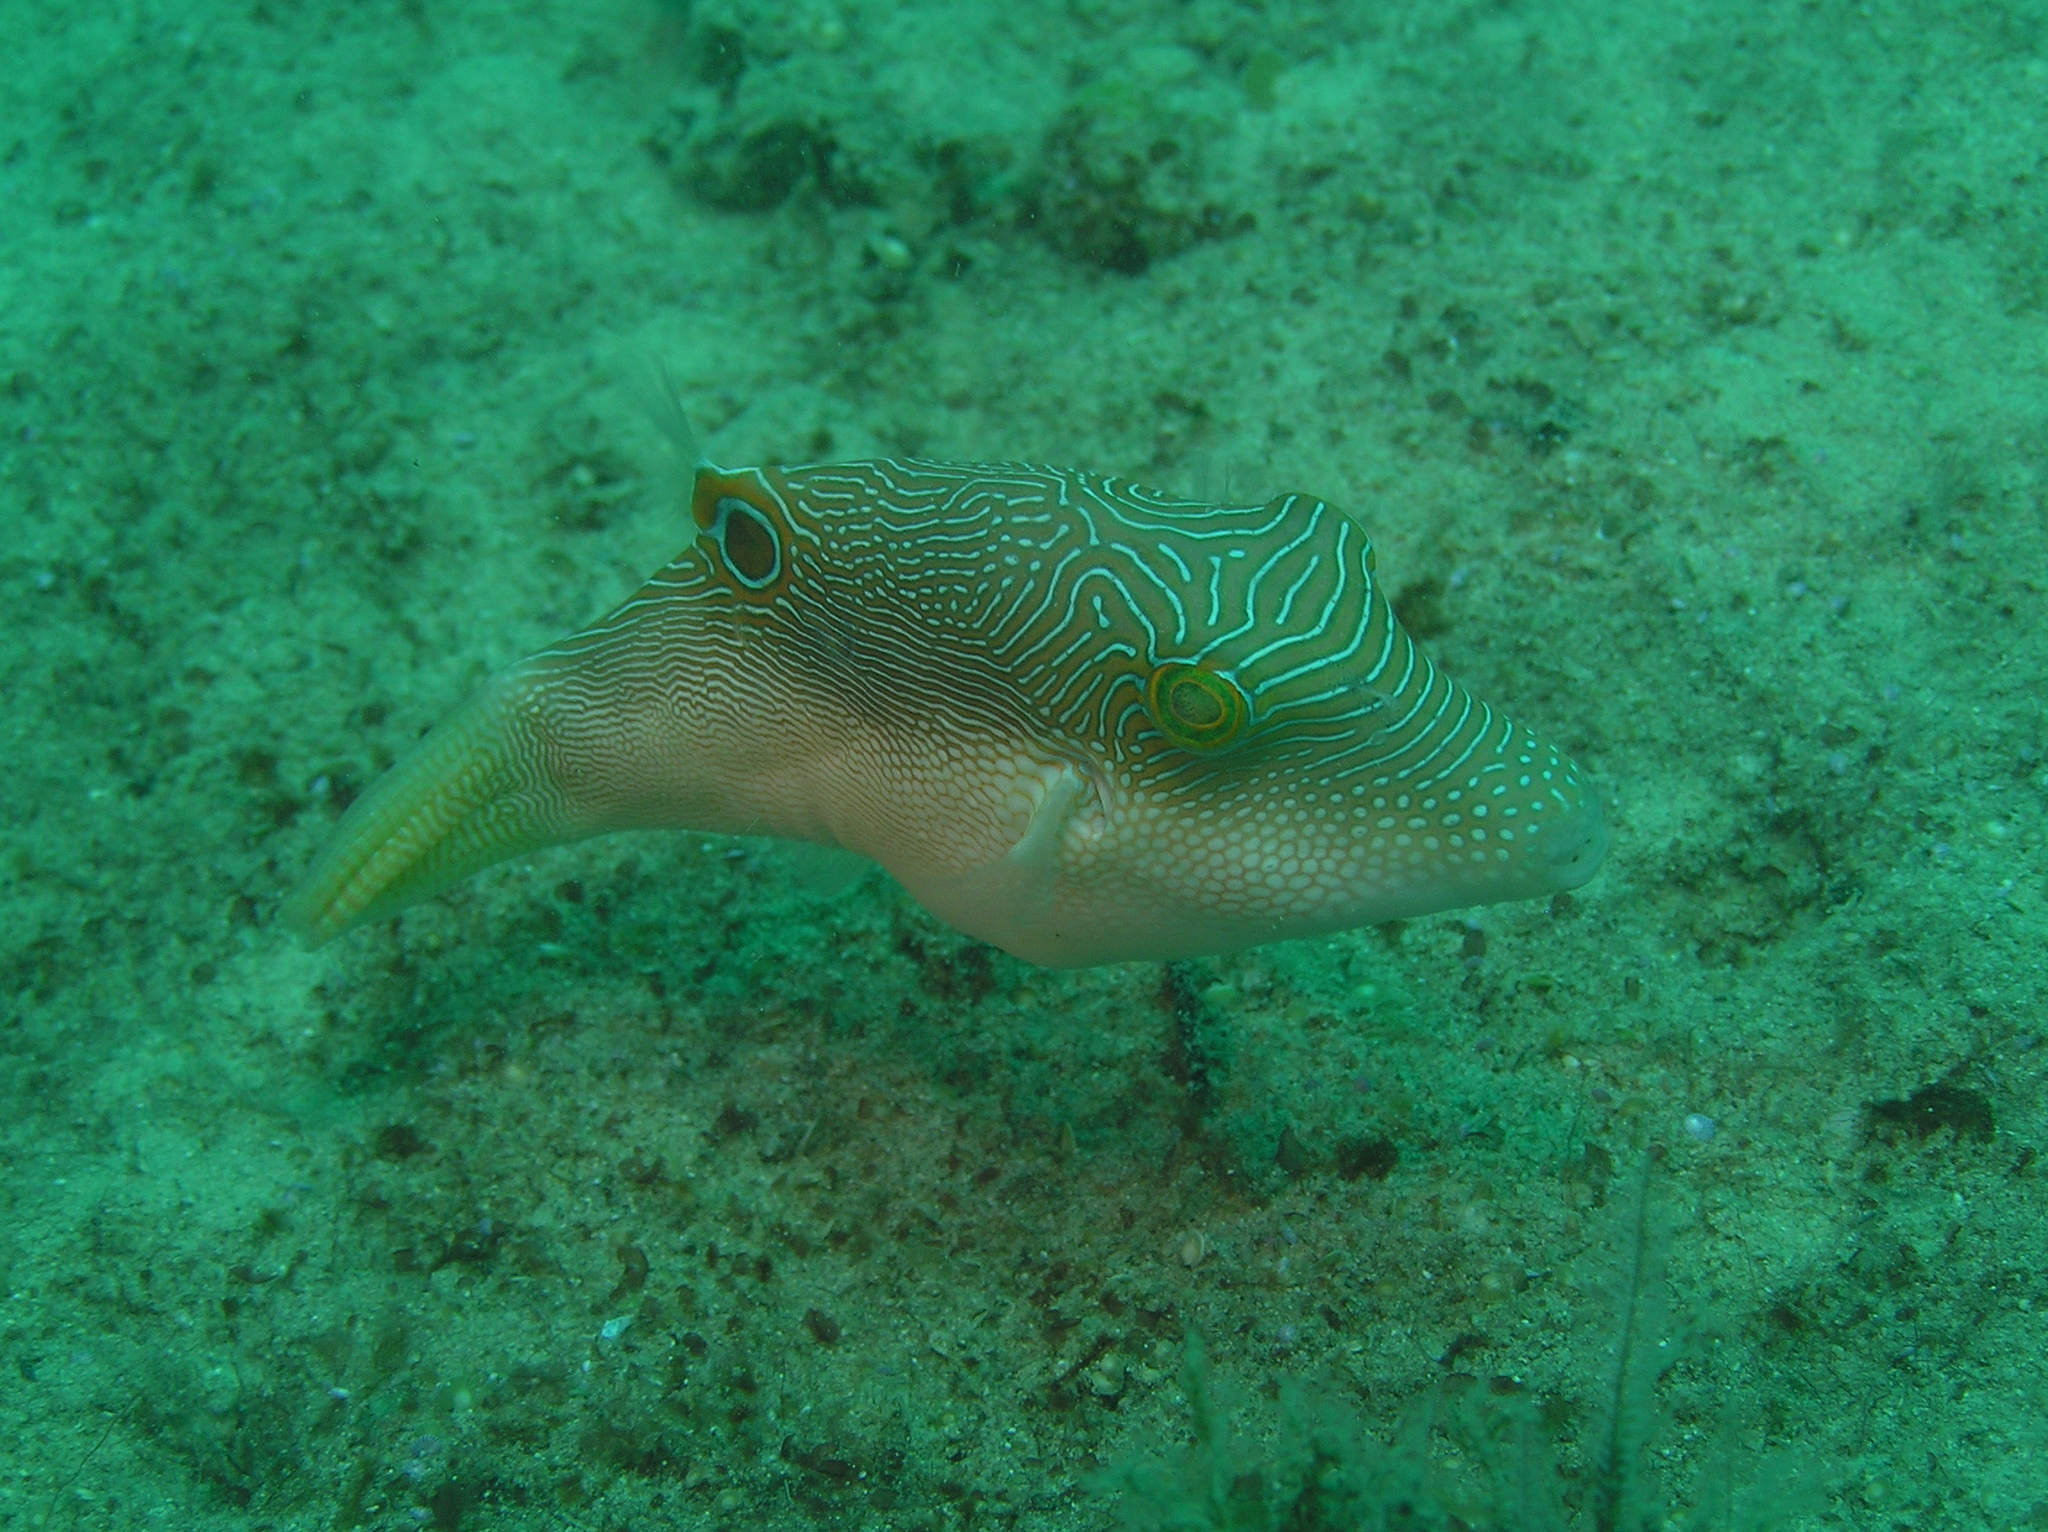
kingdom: Animalia
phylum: Chordata
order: Tetraodontiformes
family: Tetraodontidae
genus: Canthigaster
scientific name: Canthigaster compressa
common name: Compressed toby
